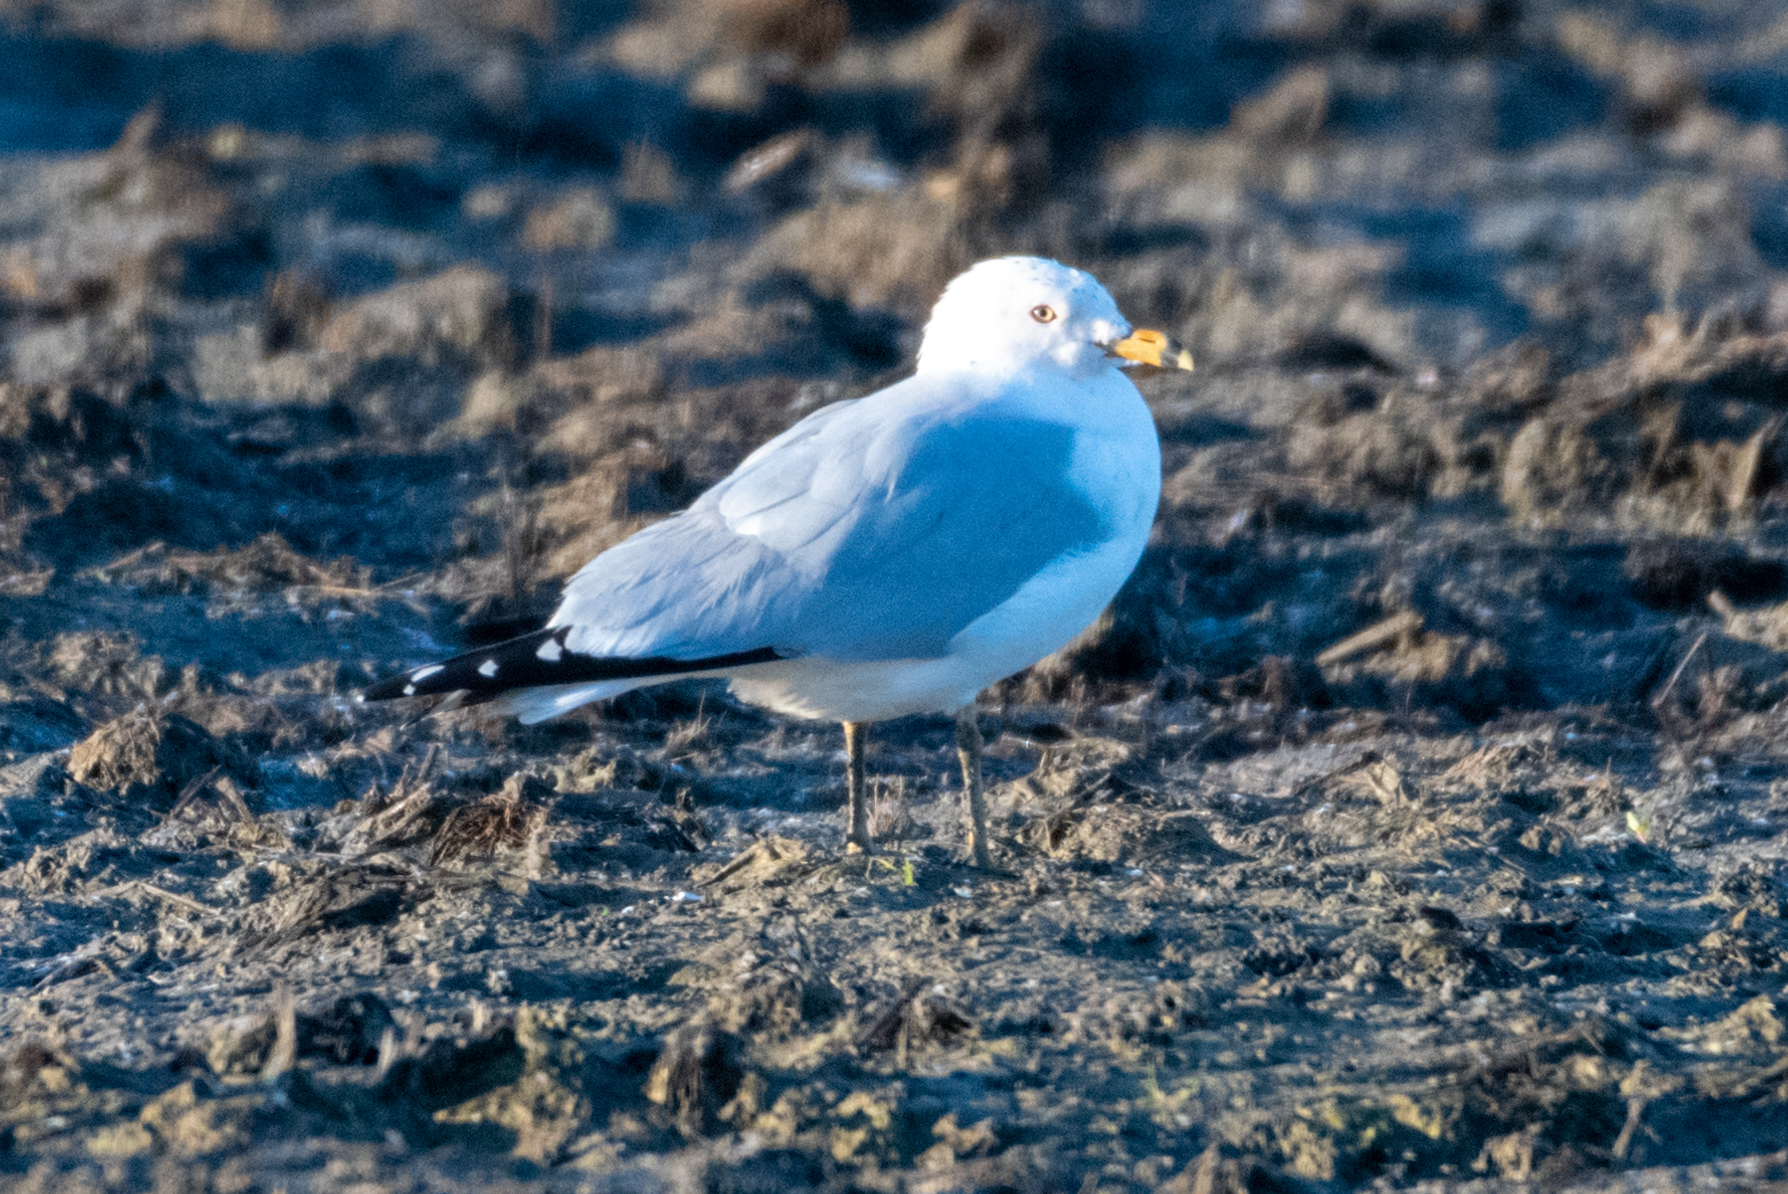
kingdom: Animalia
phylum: Chordata
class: Aves
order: Charadriiformes
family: Laridae
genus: Larus
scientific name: Larus delawarensis
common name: Ring-billed gull
